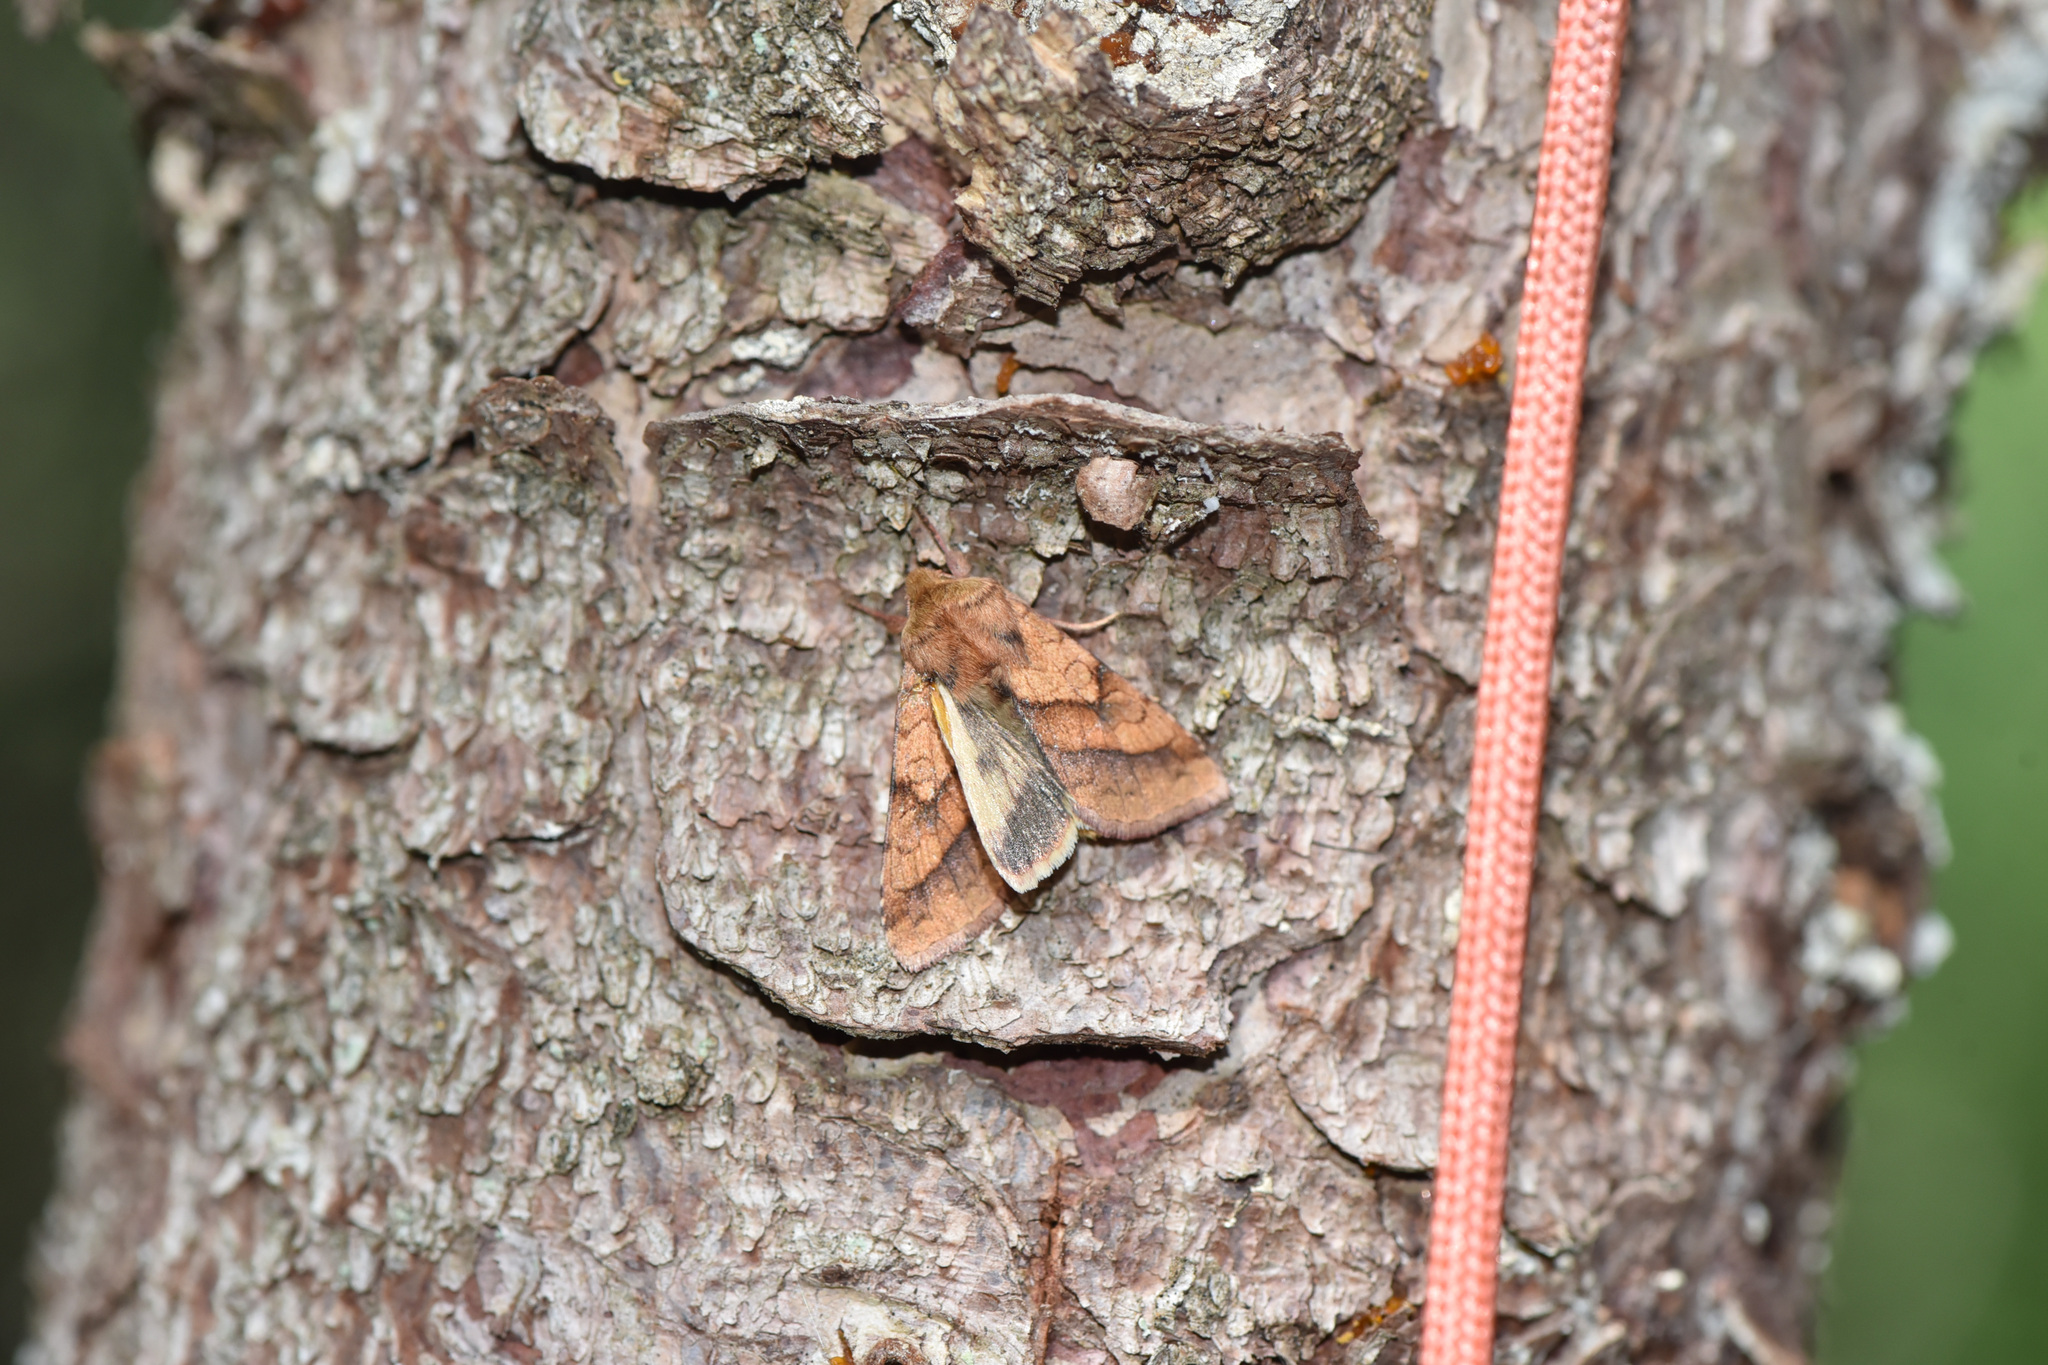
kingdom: Animalia
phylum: Arthropoda
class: Insecta
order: Lepidoptera
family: Noctuidae
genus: Pyrrhia
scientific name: Pyrrhia exprimens
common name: Purple-lined sallow
